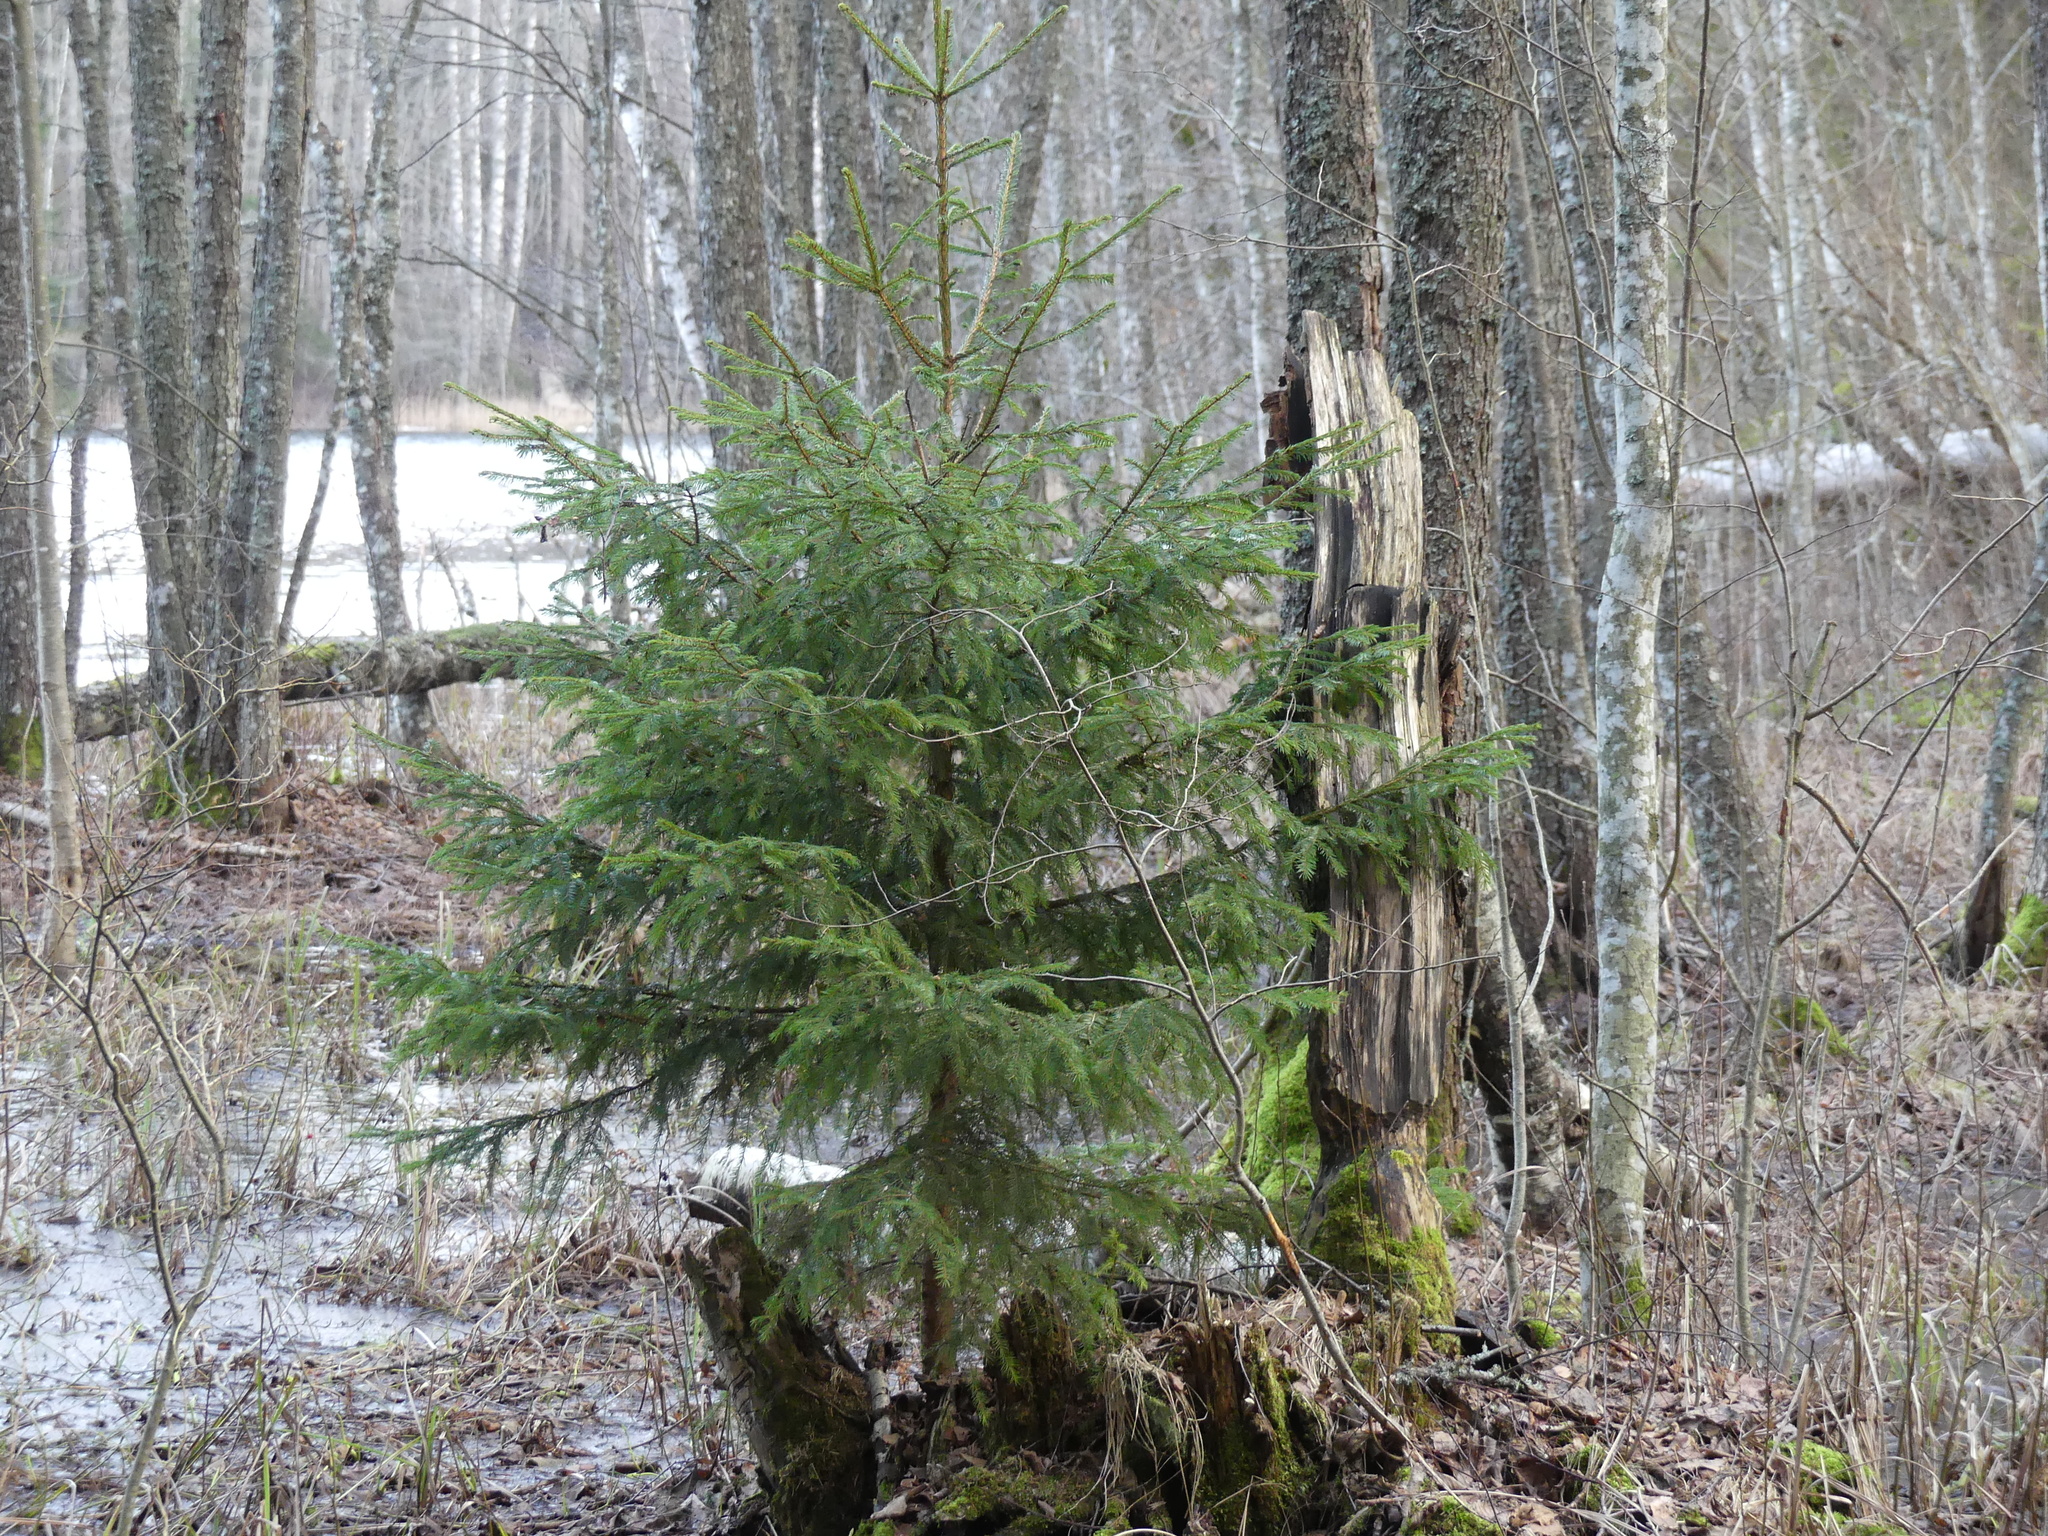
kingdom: Plantae
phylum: Tracheophyta
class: Pinopsida
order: Pinales
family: Pinaceae
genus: Picea
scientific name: Picea abies
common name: Norway spruce
